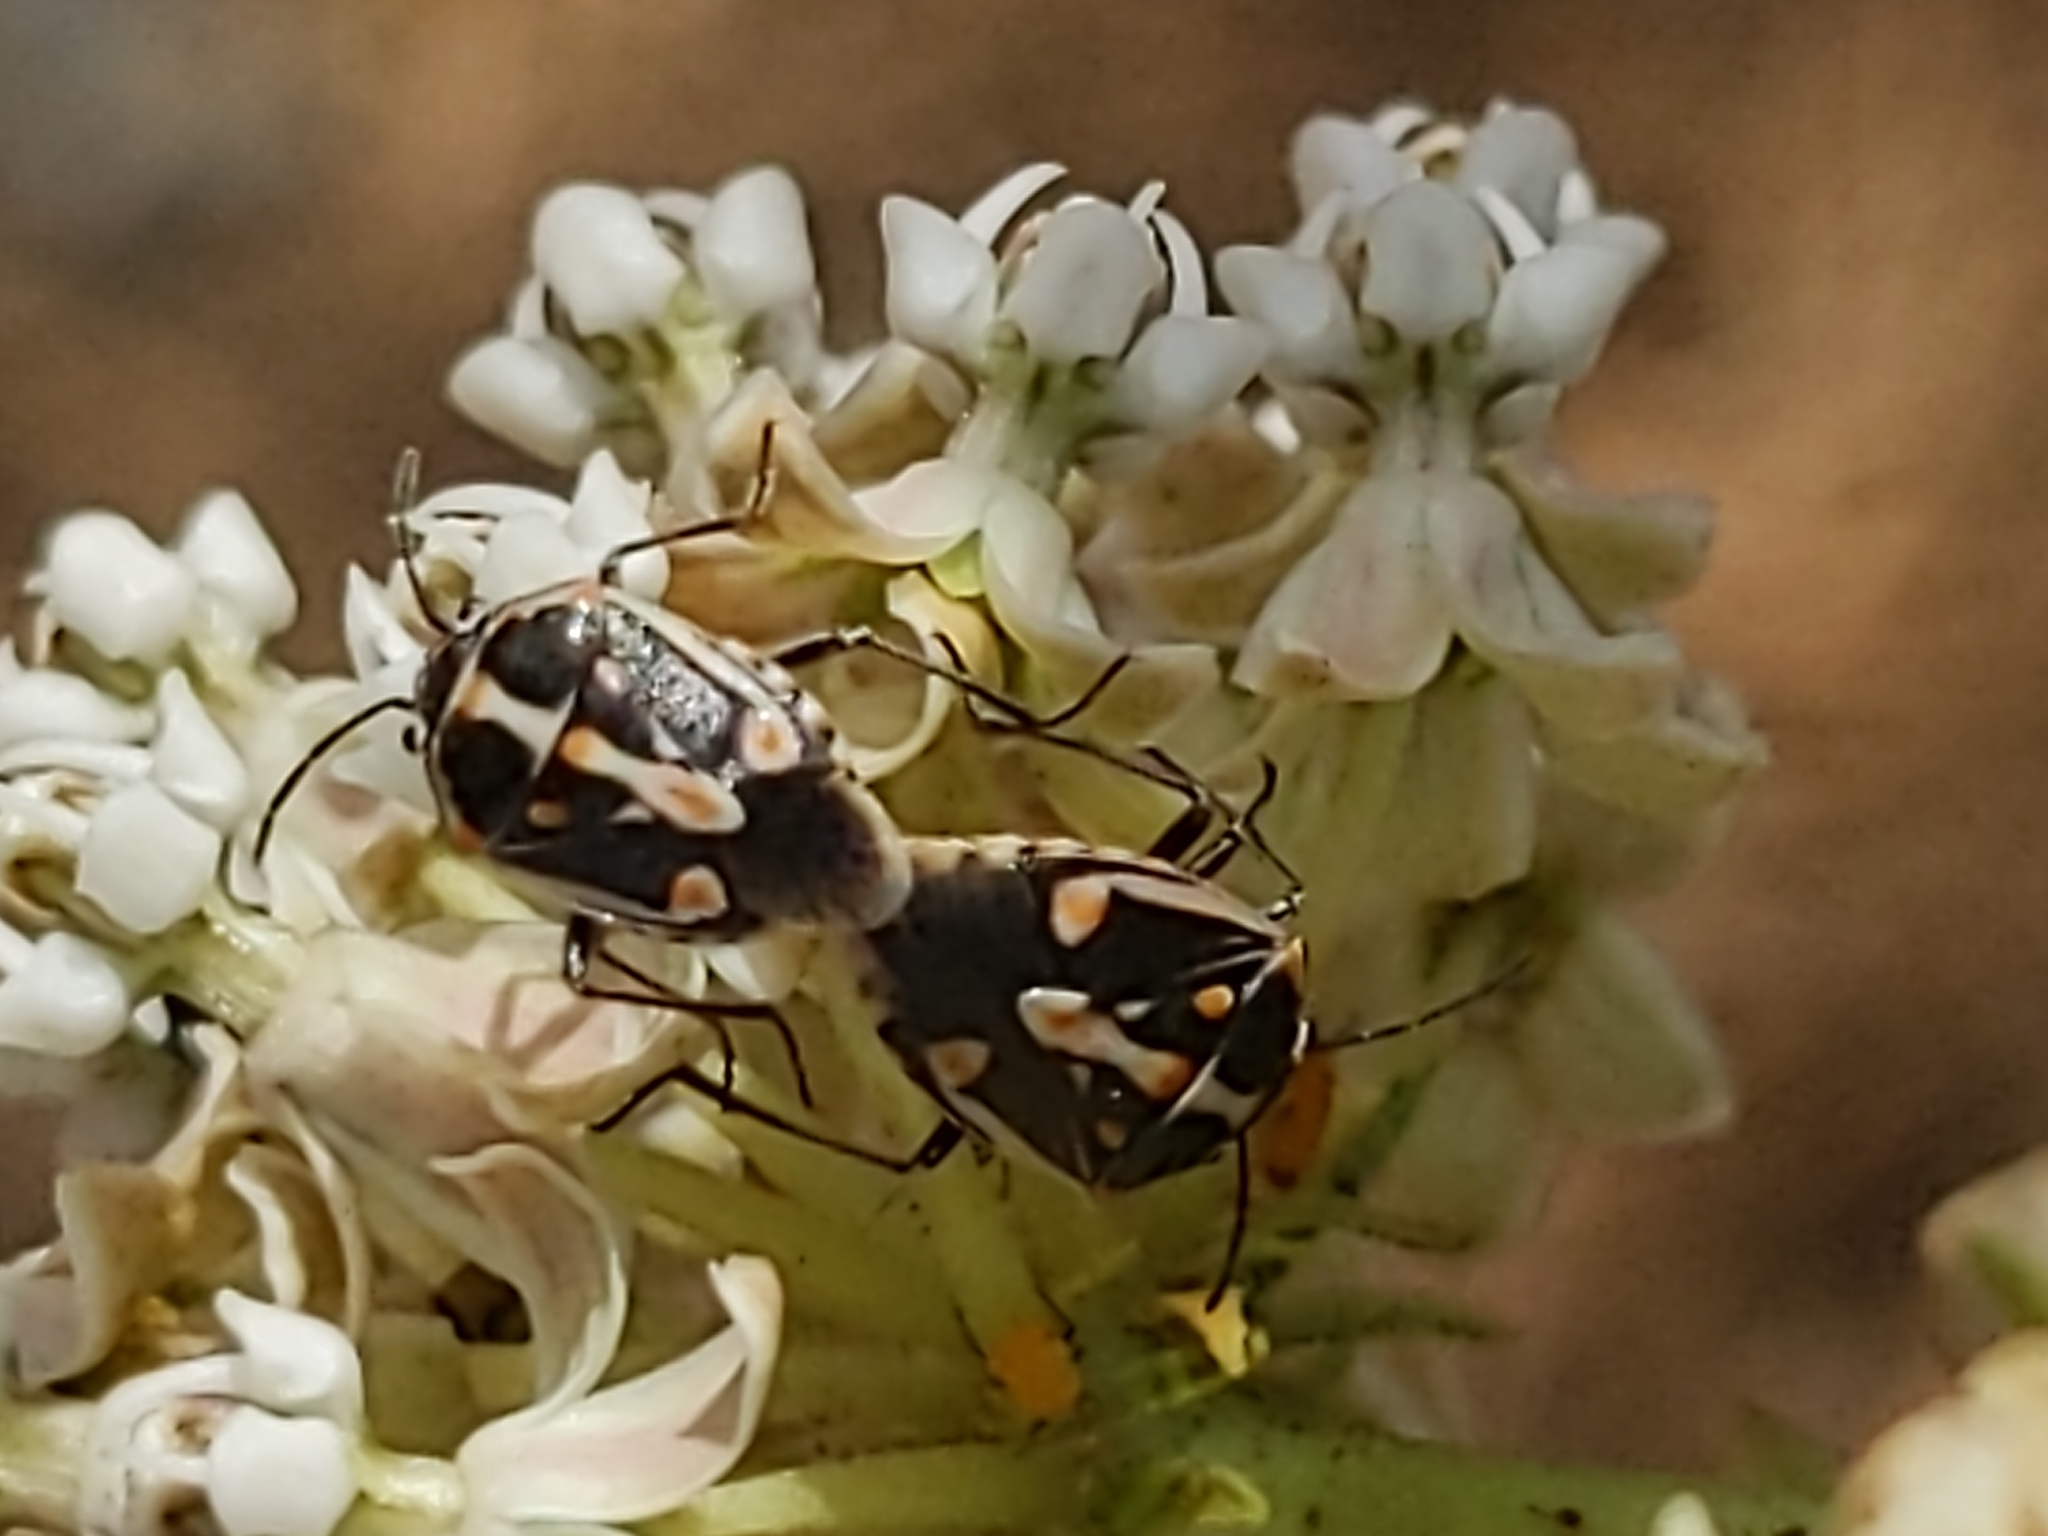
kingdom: Animalia
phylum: Arthropoda
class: Insecta
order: Hemiptera
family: Pentatomidae
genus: Bagrada
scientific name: Bagrada hilaris
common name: Bagrada bug
